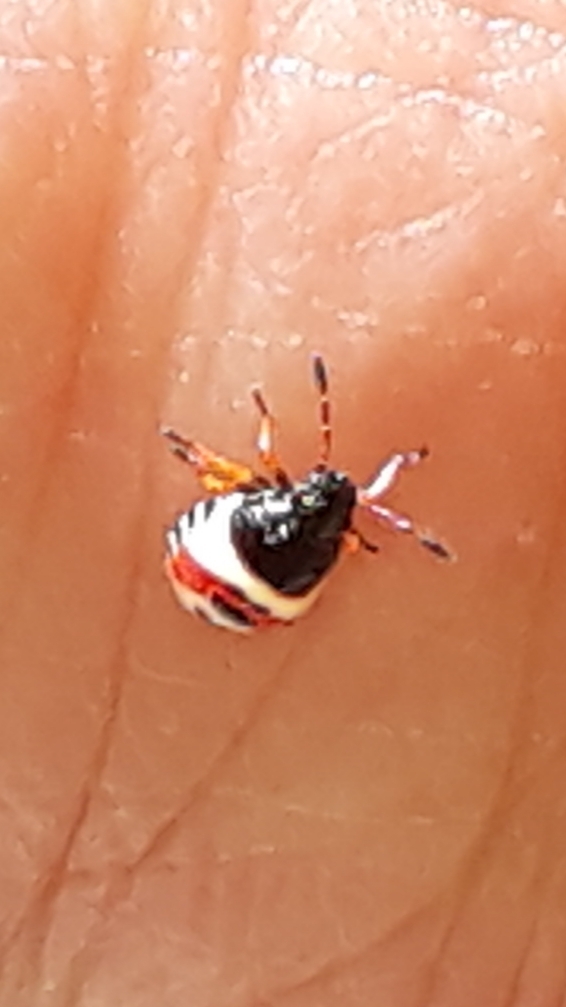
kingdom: Animalia
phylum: Arthropoda
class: Insecta
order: Hemiptera
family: Pentatomidae
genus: Carpocoris
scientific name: Carpocoris
